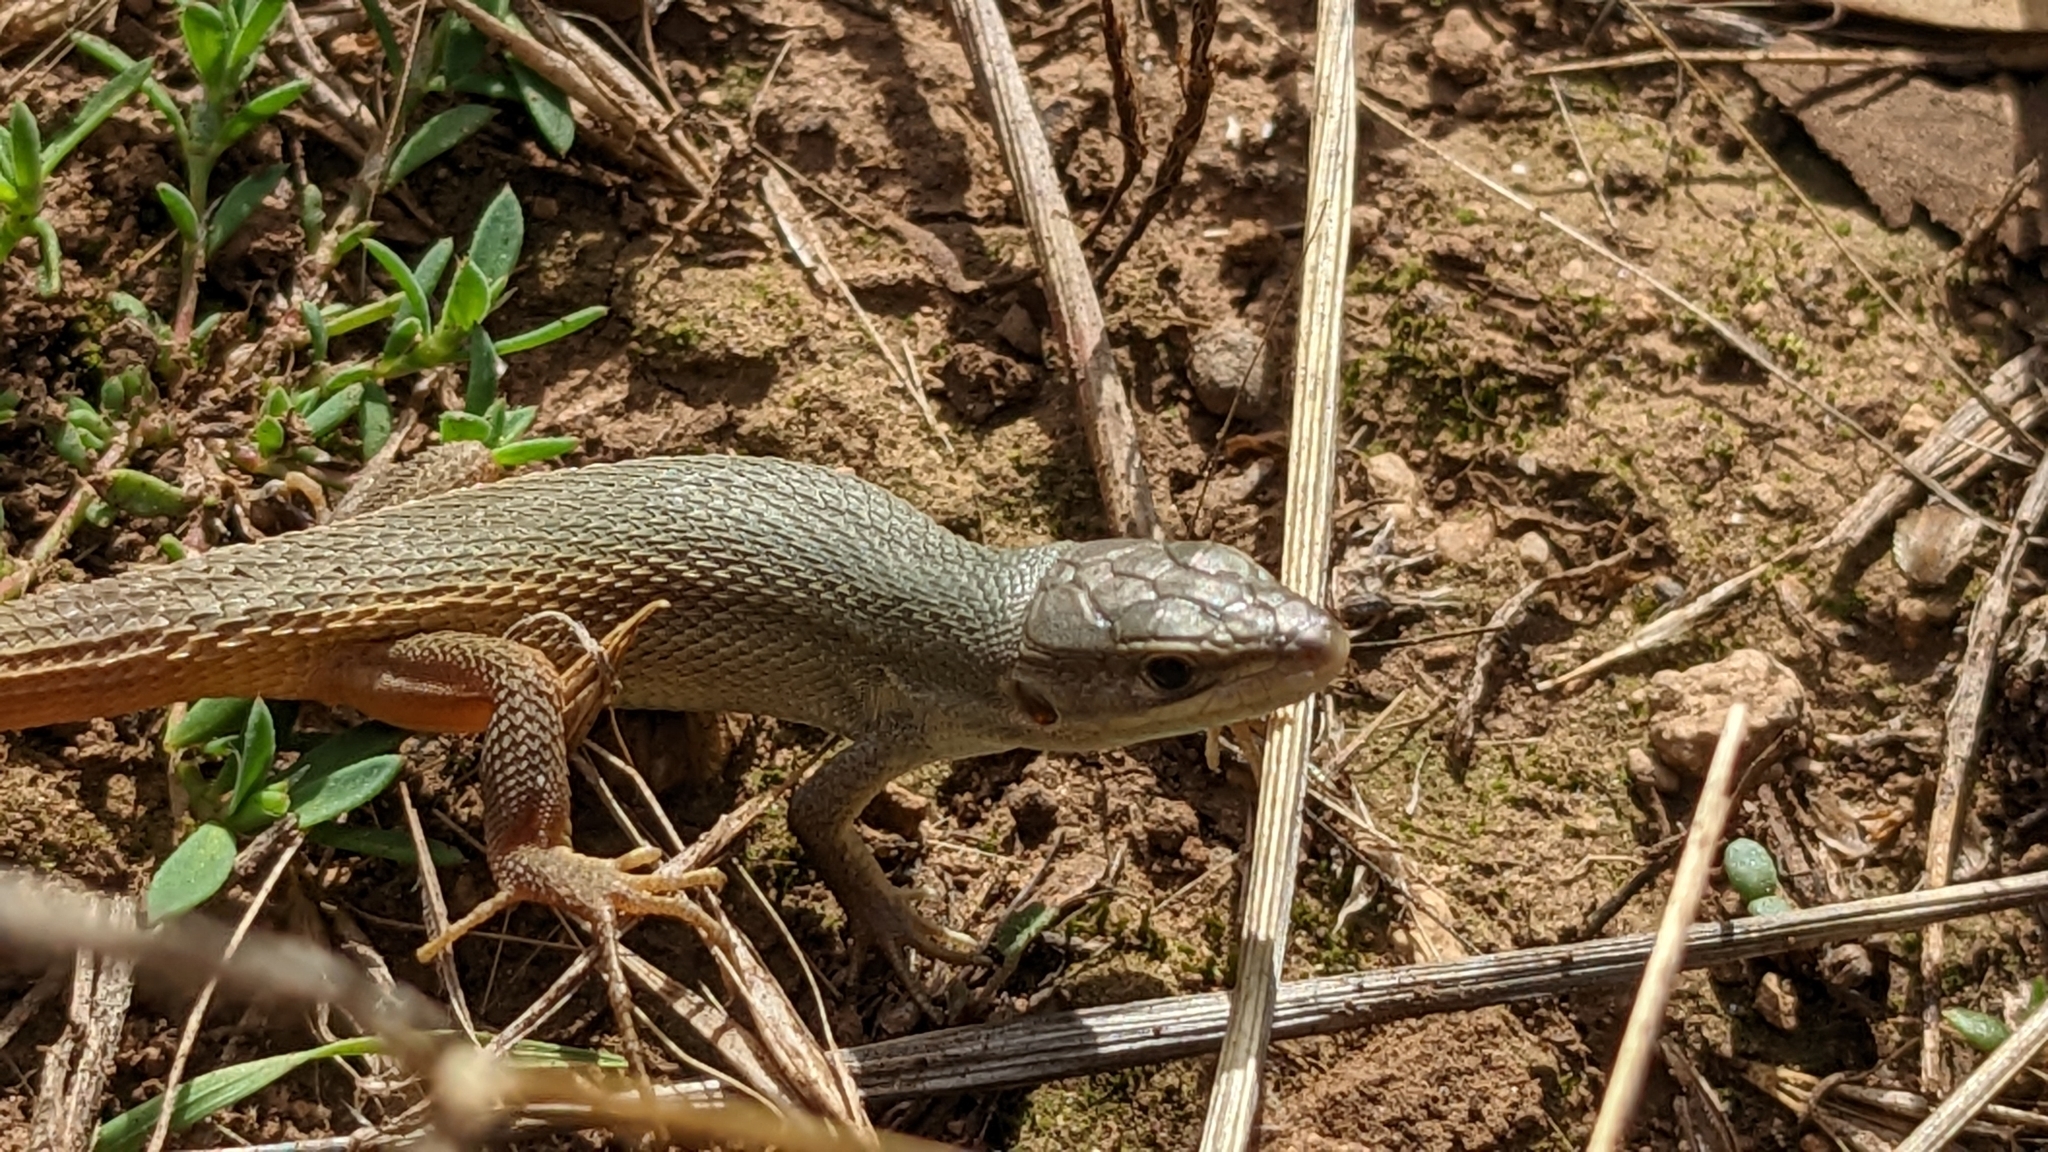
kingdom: Animalia
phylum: Chordata
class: Squamata
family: Lacertidae
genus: Psammodromus
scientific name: Psammodromus algirus
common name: Algerian psammodromus
